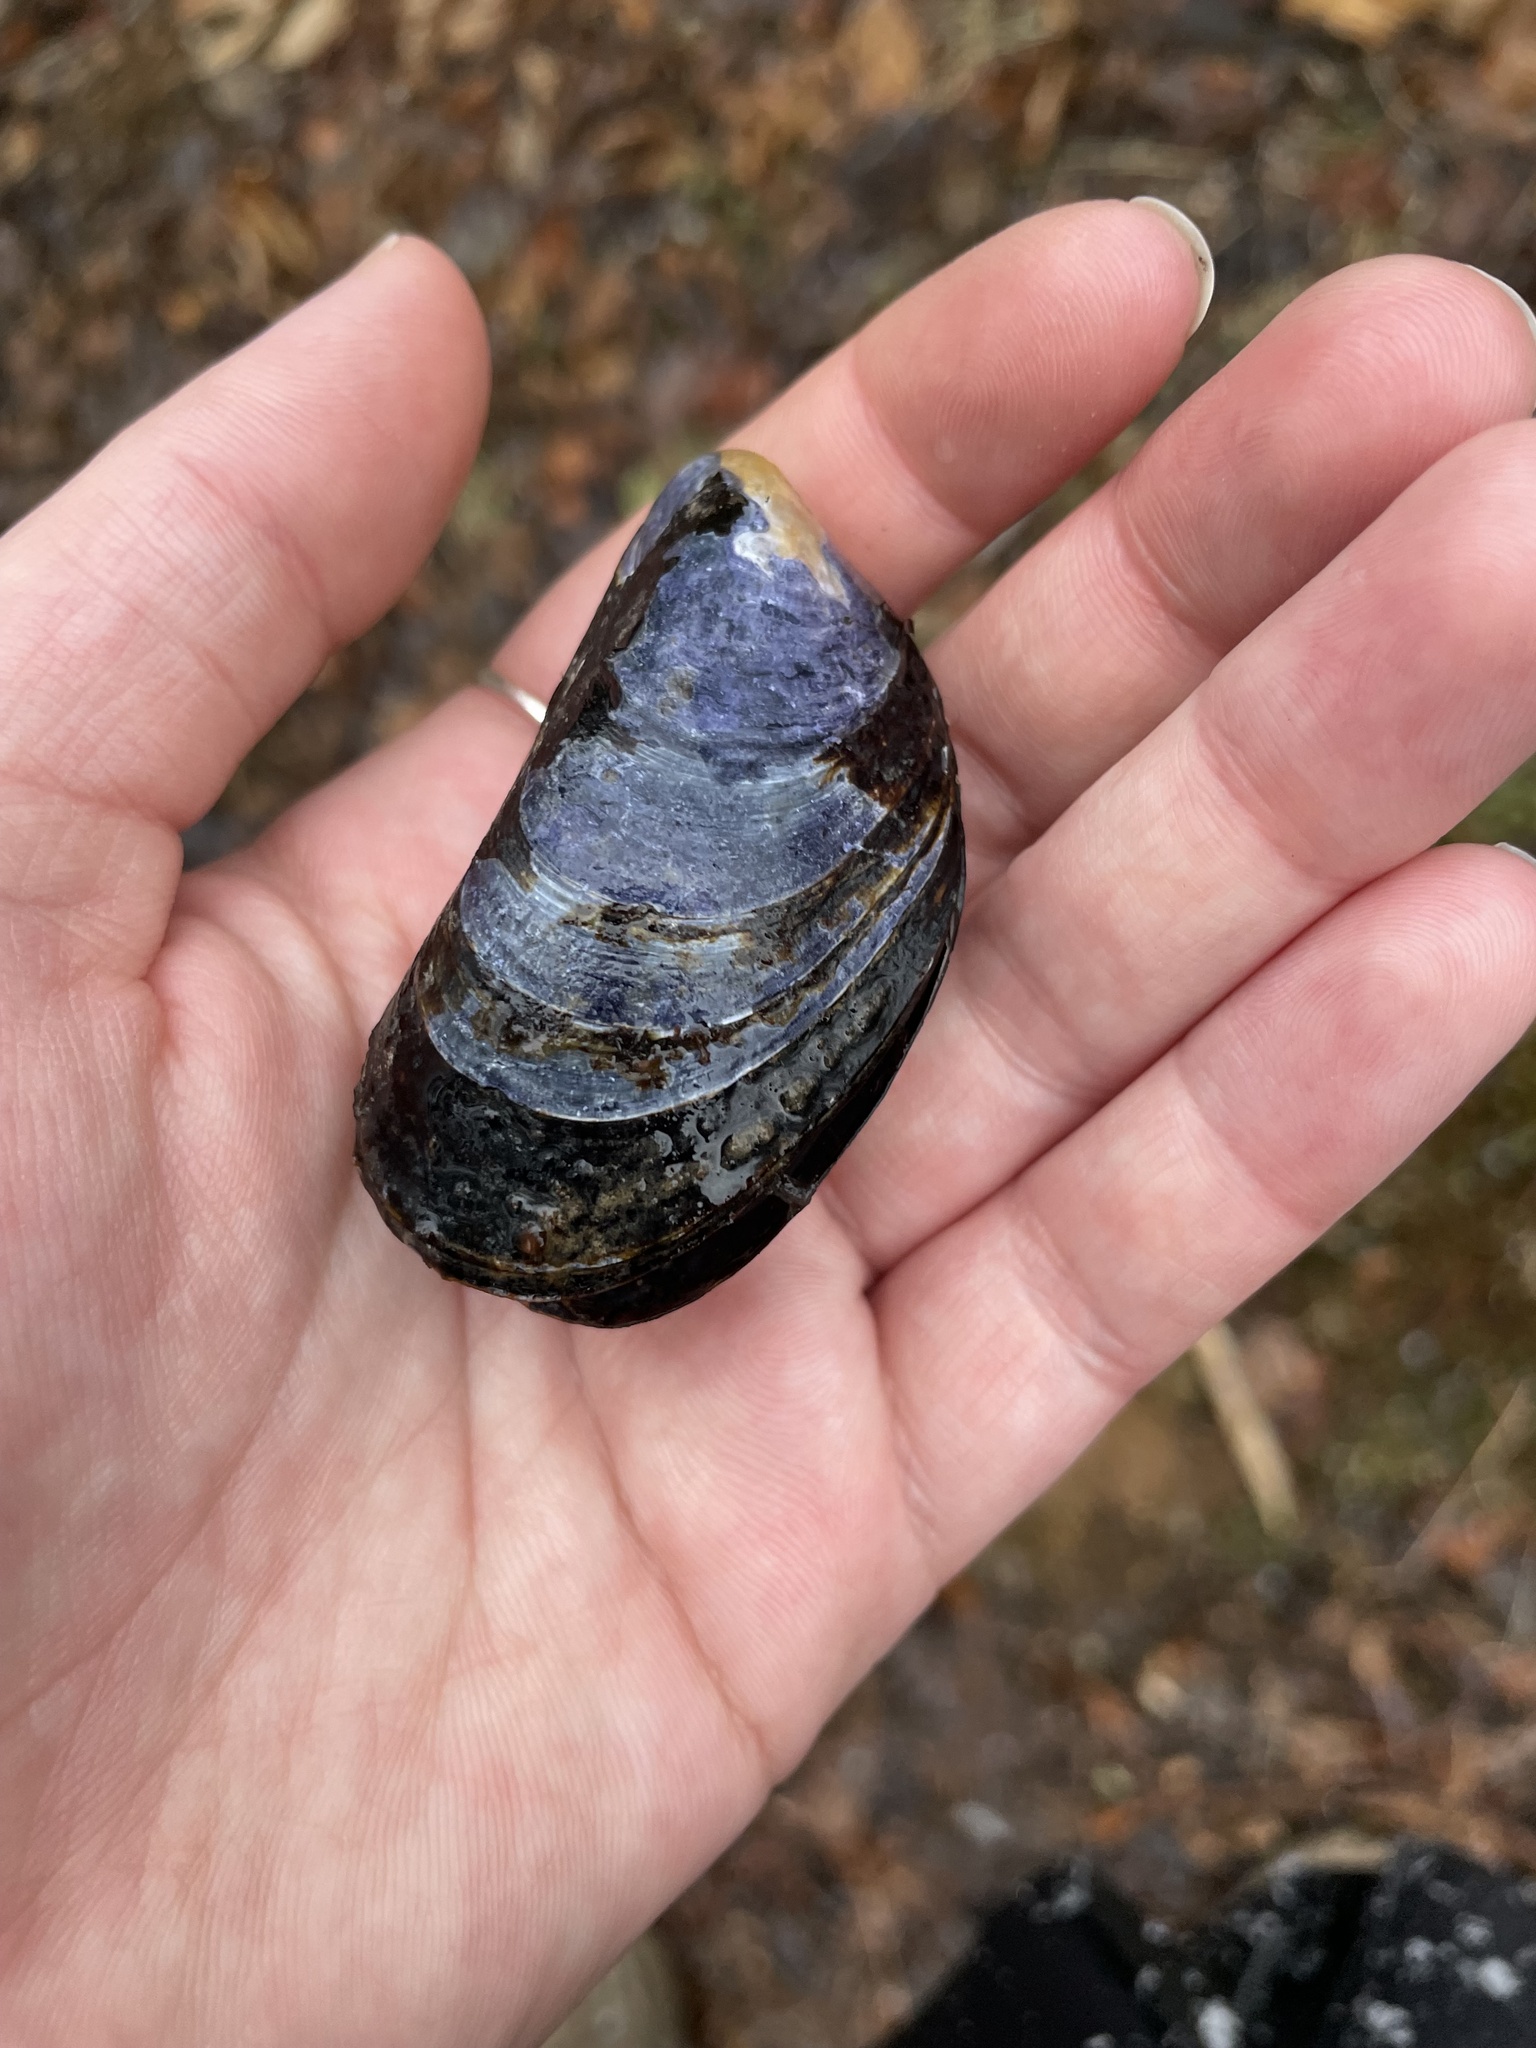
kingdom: Animalia
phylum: Mollusca
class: Bivalvia
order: Mytilida
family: Mytilidae
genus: Mytilus
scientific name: Mytilus
